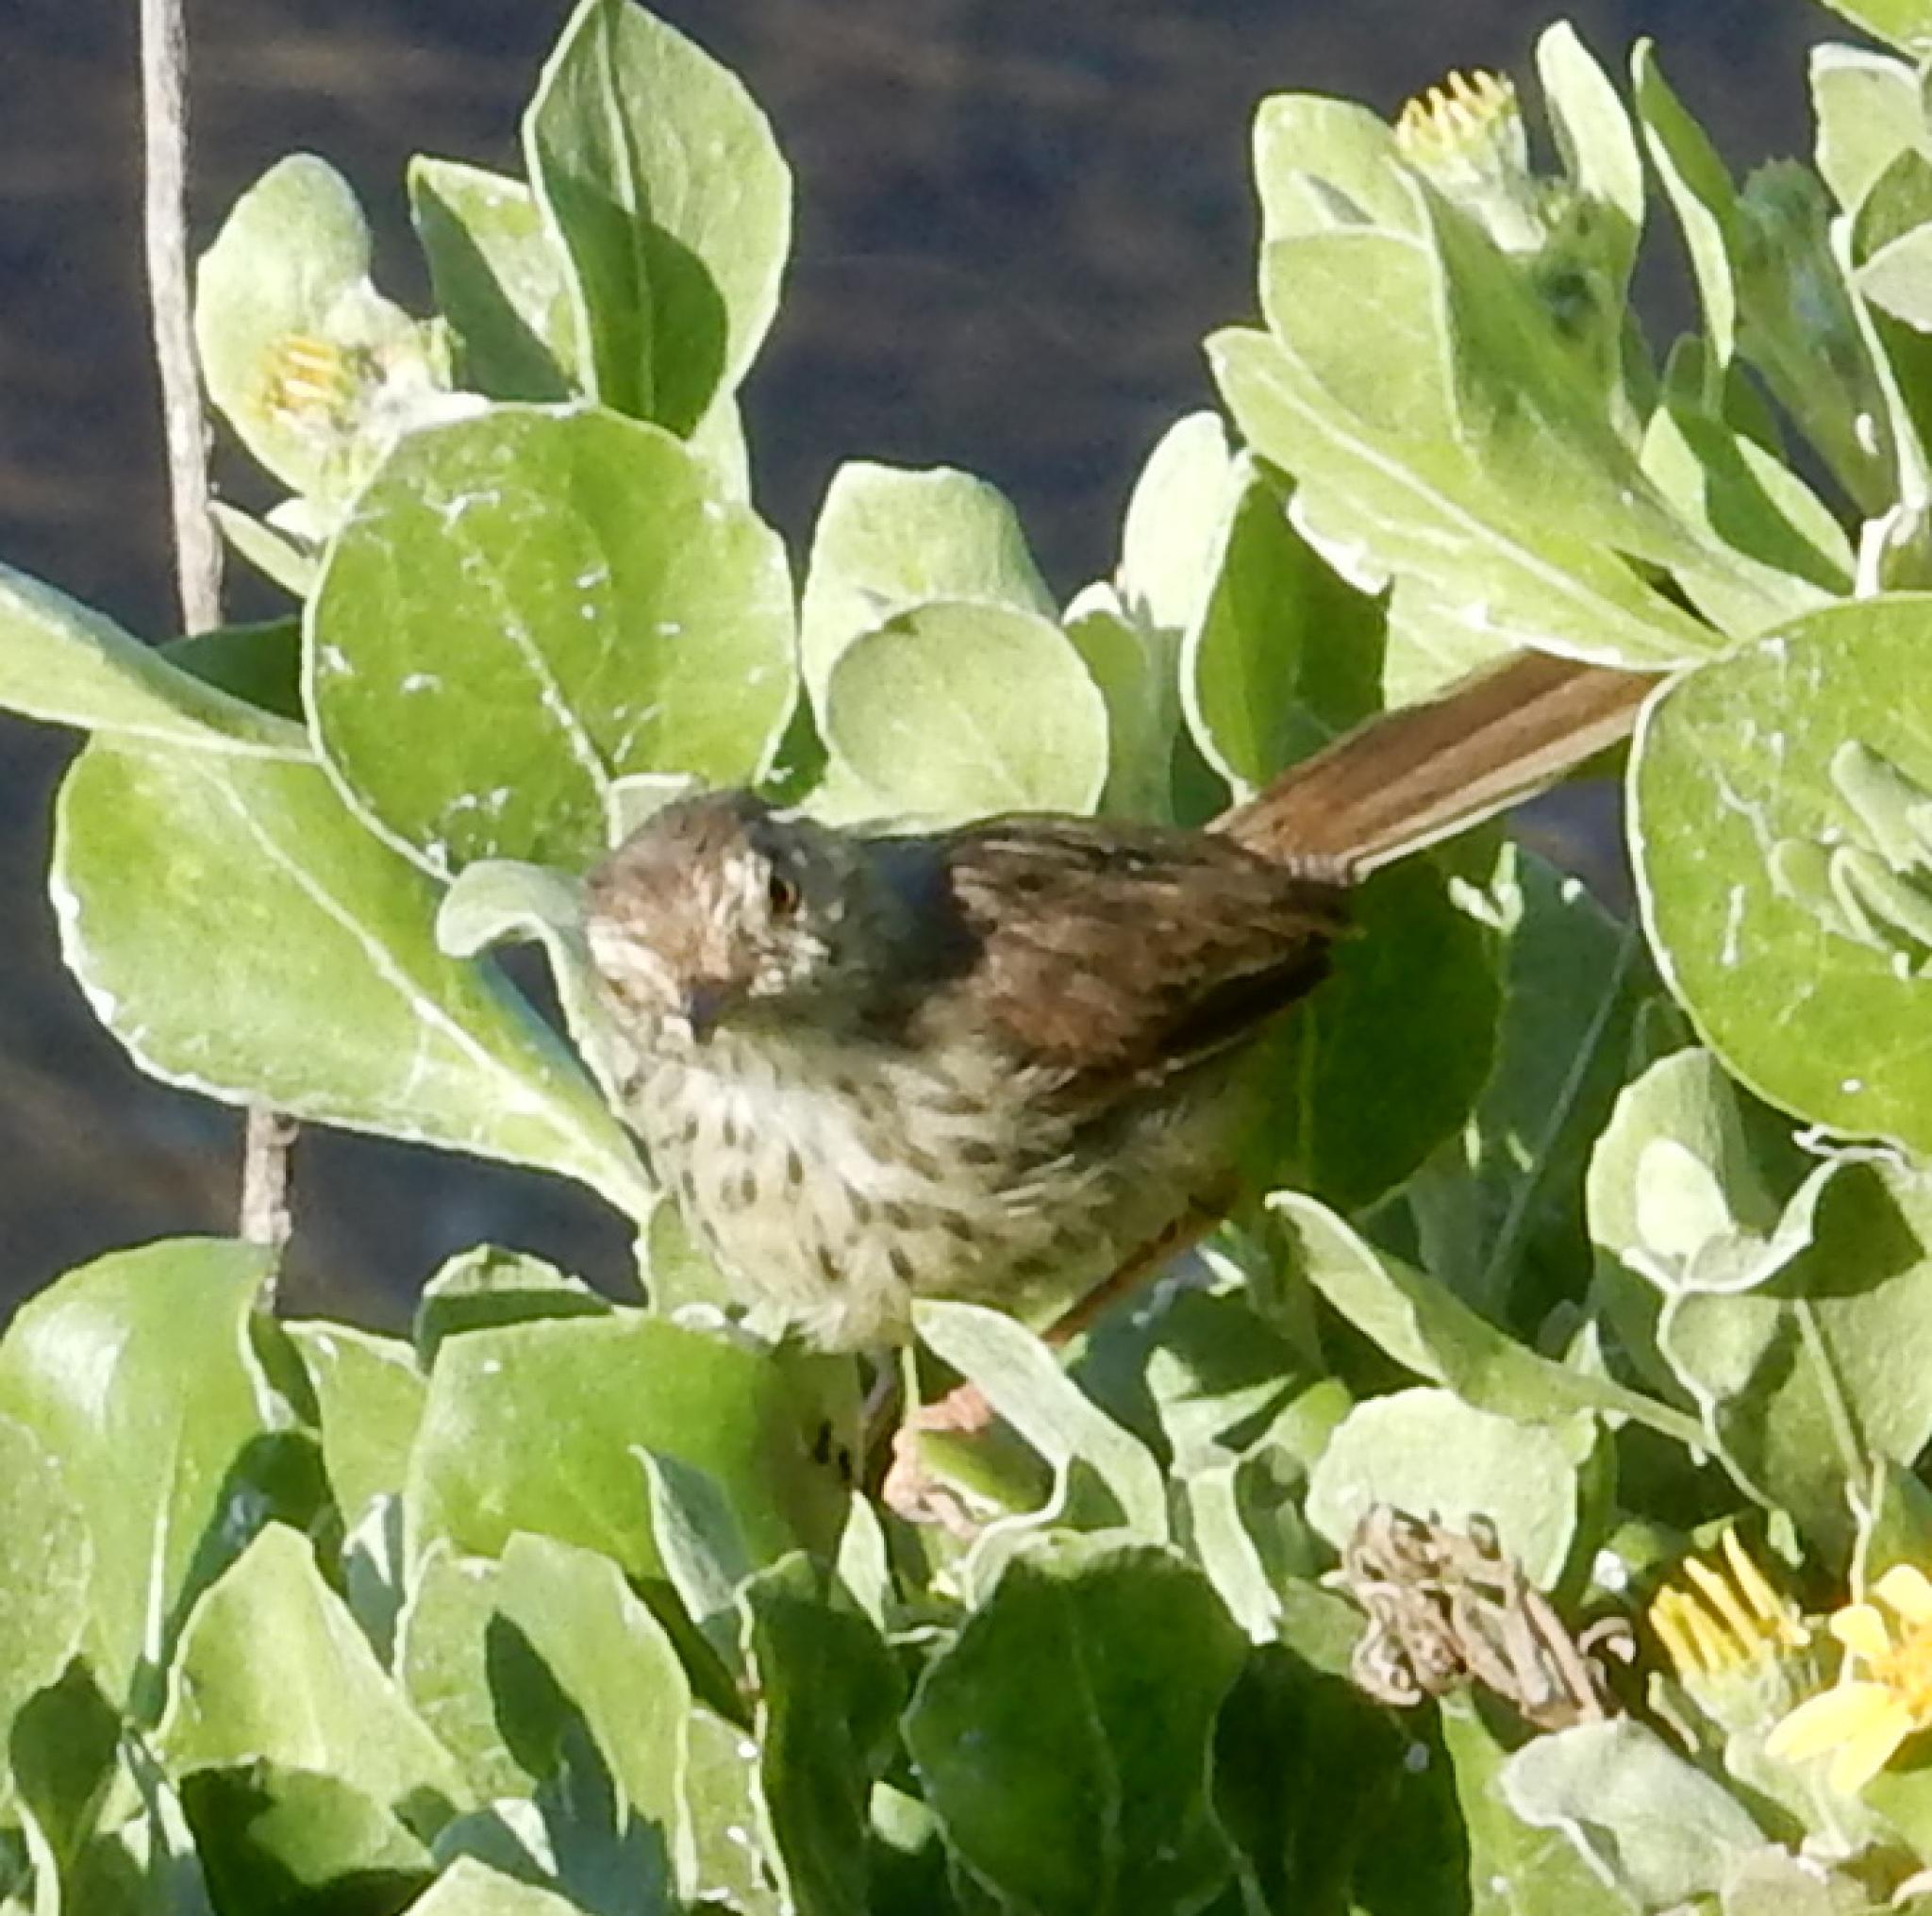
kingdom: Animalia
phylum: Chordata
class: Aves
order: Passeriformes
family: Cisticolidae
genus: Prinia
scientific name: Prinia maculosa
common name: Karoo prinia
